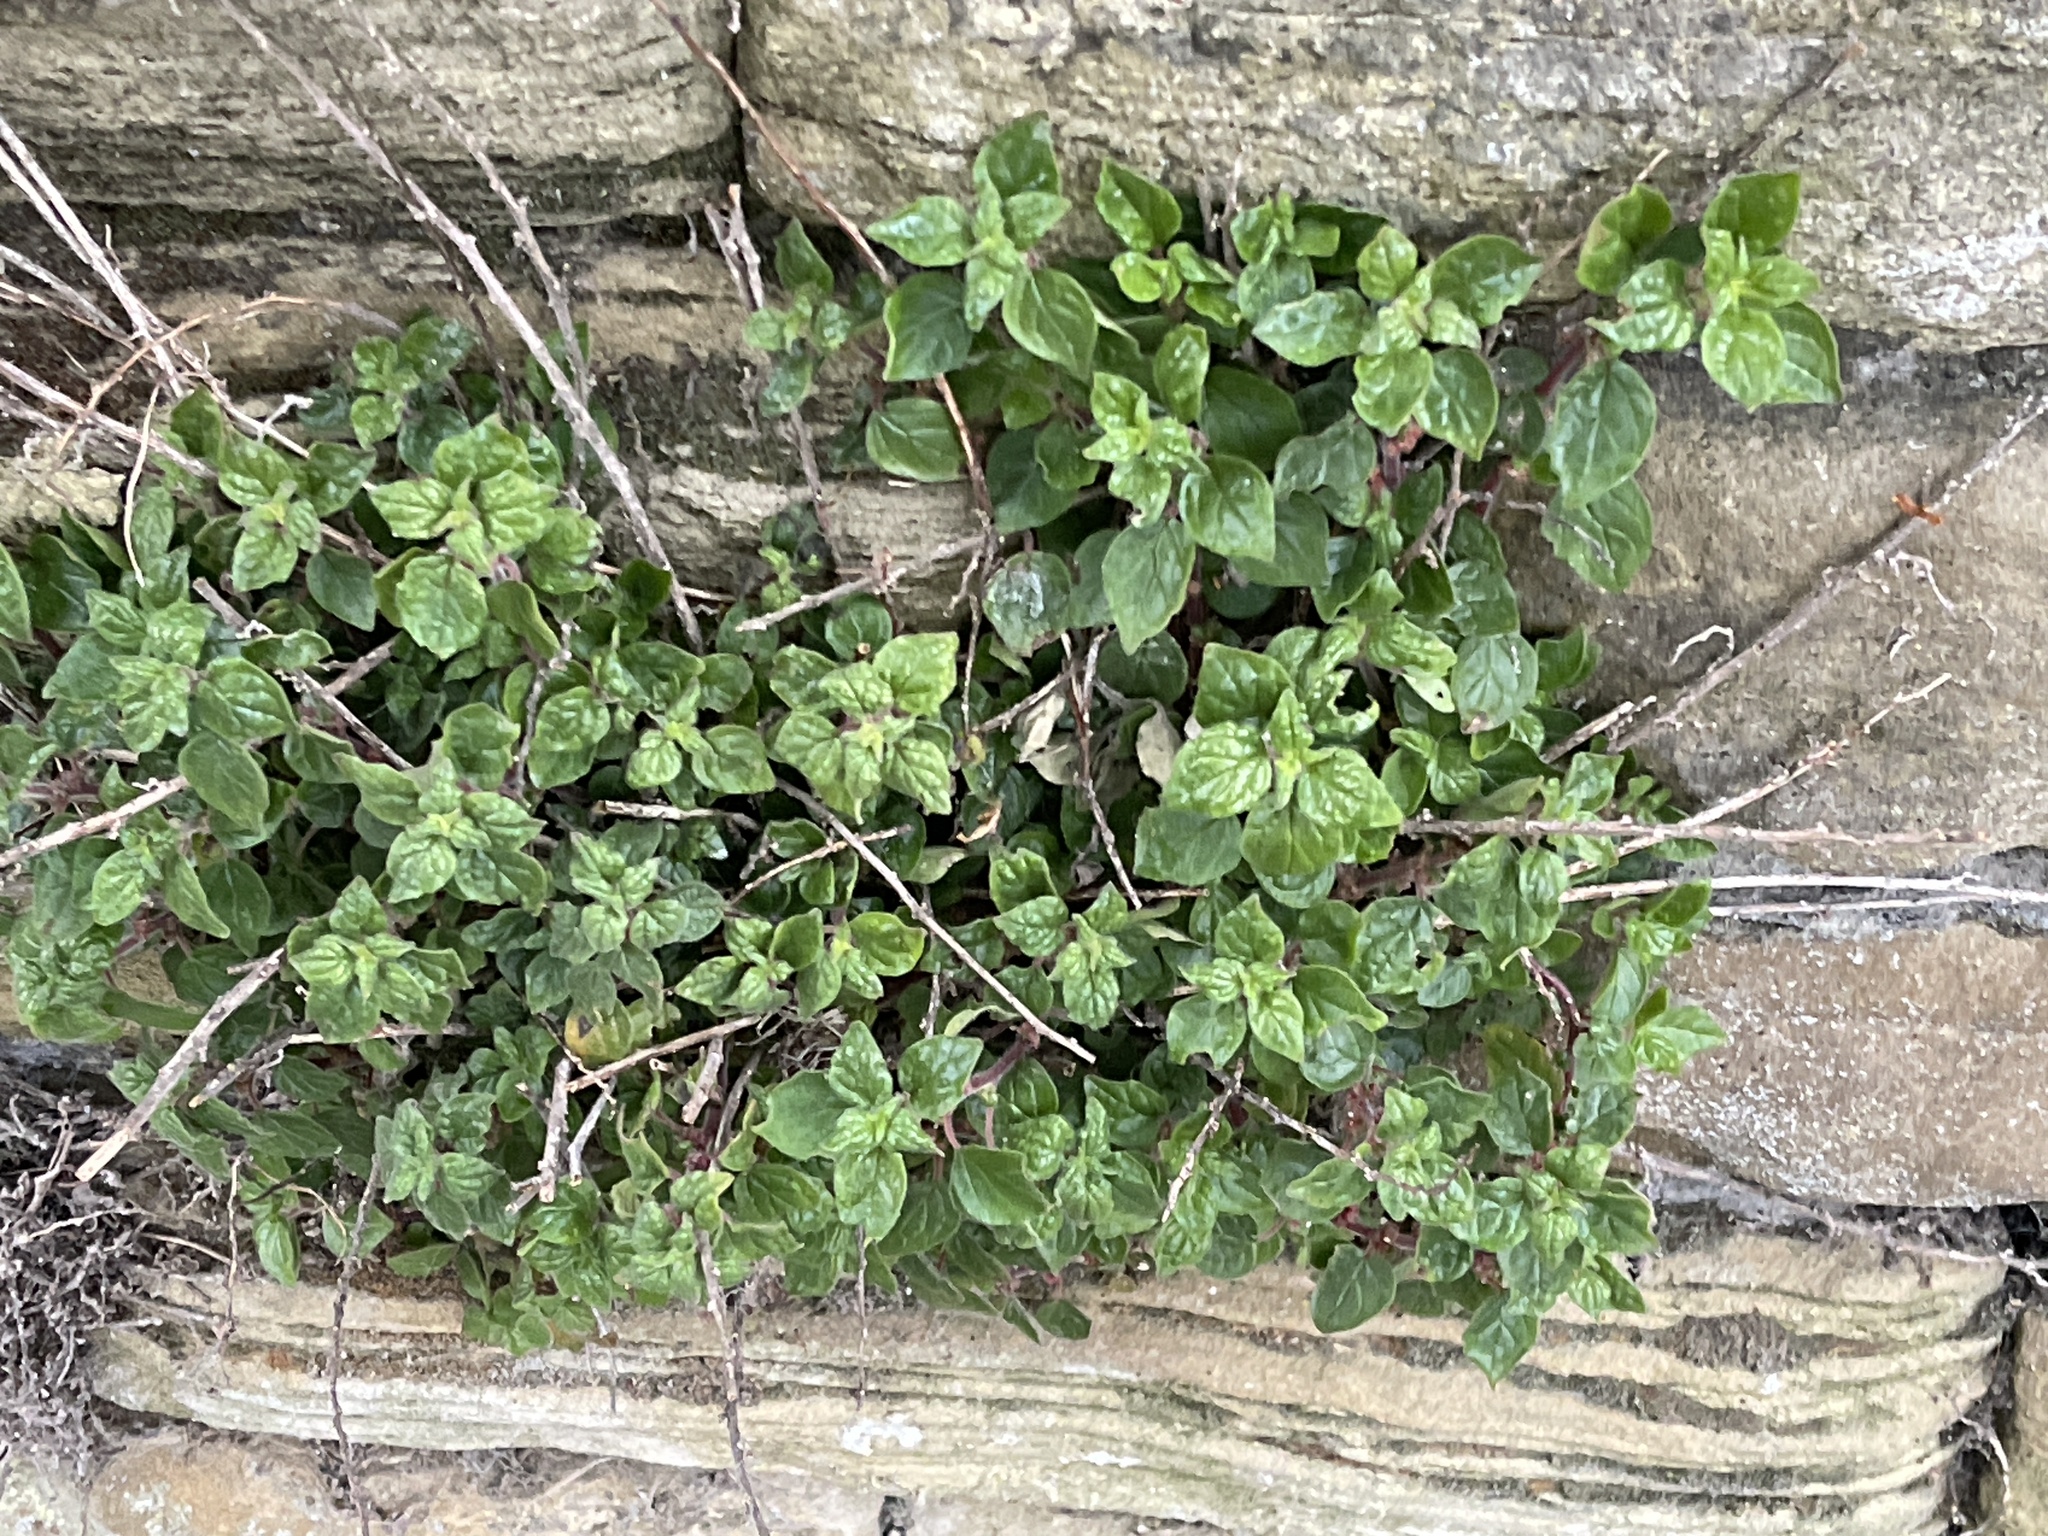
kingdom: Plantae
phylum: Tracheophyta
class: Magnoliopsida
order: Rosales
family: Urticaceae
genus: Parietaria
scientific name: Parietaria judaica
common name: Pellitory-of-the-wall
